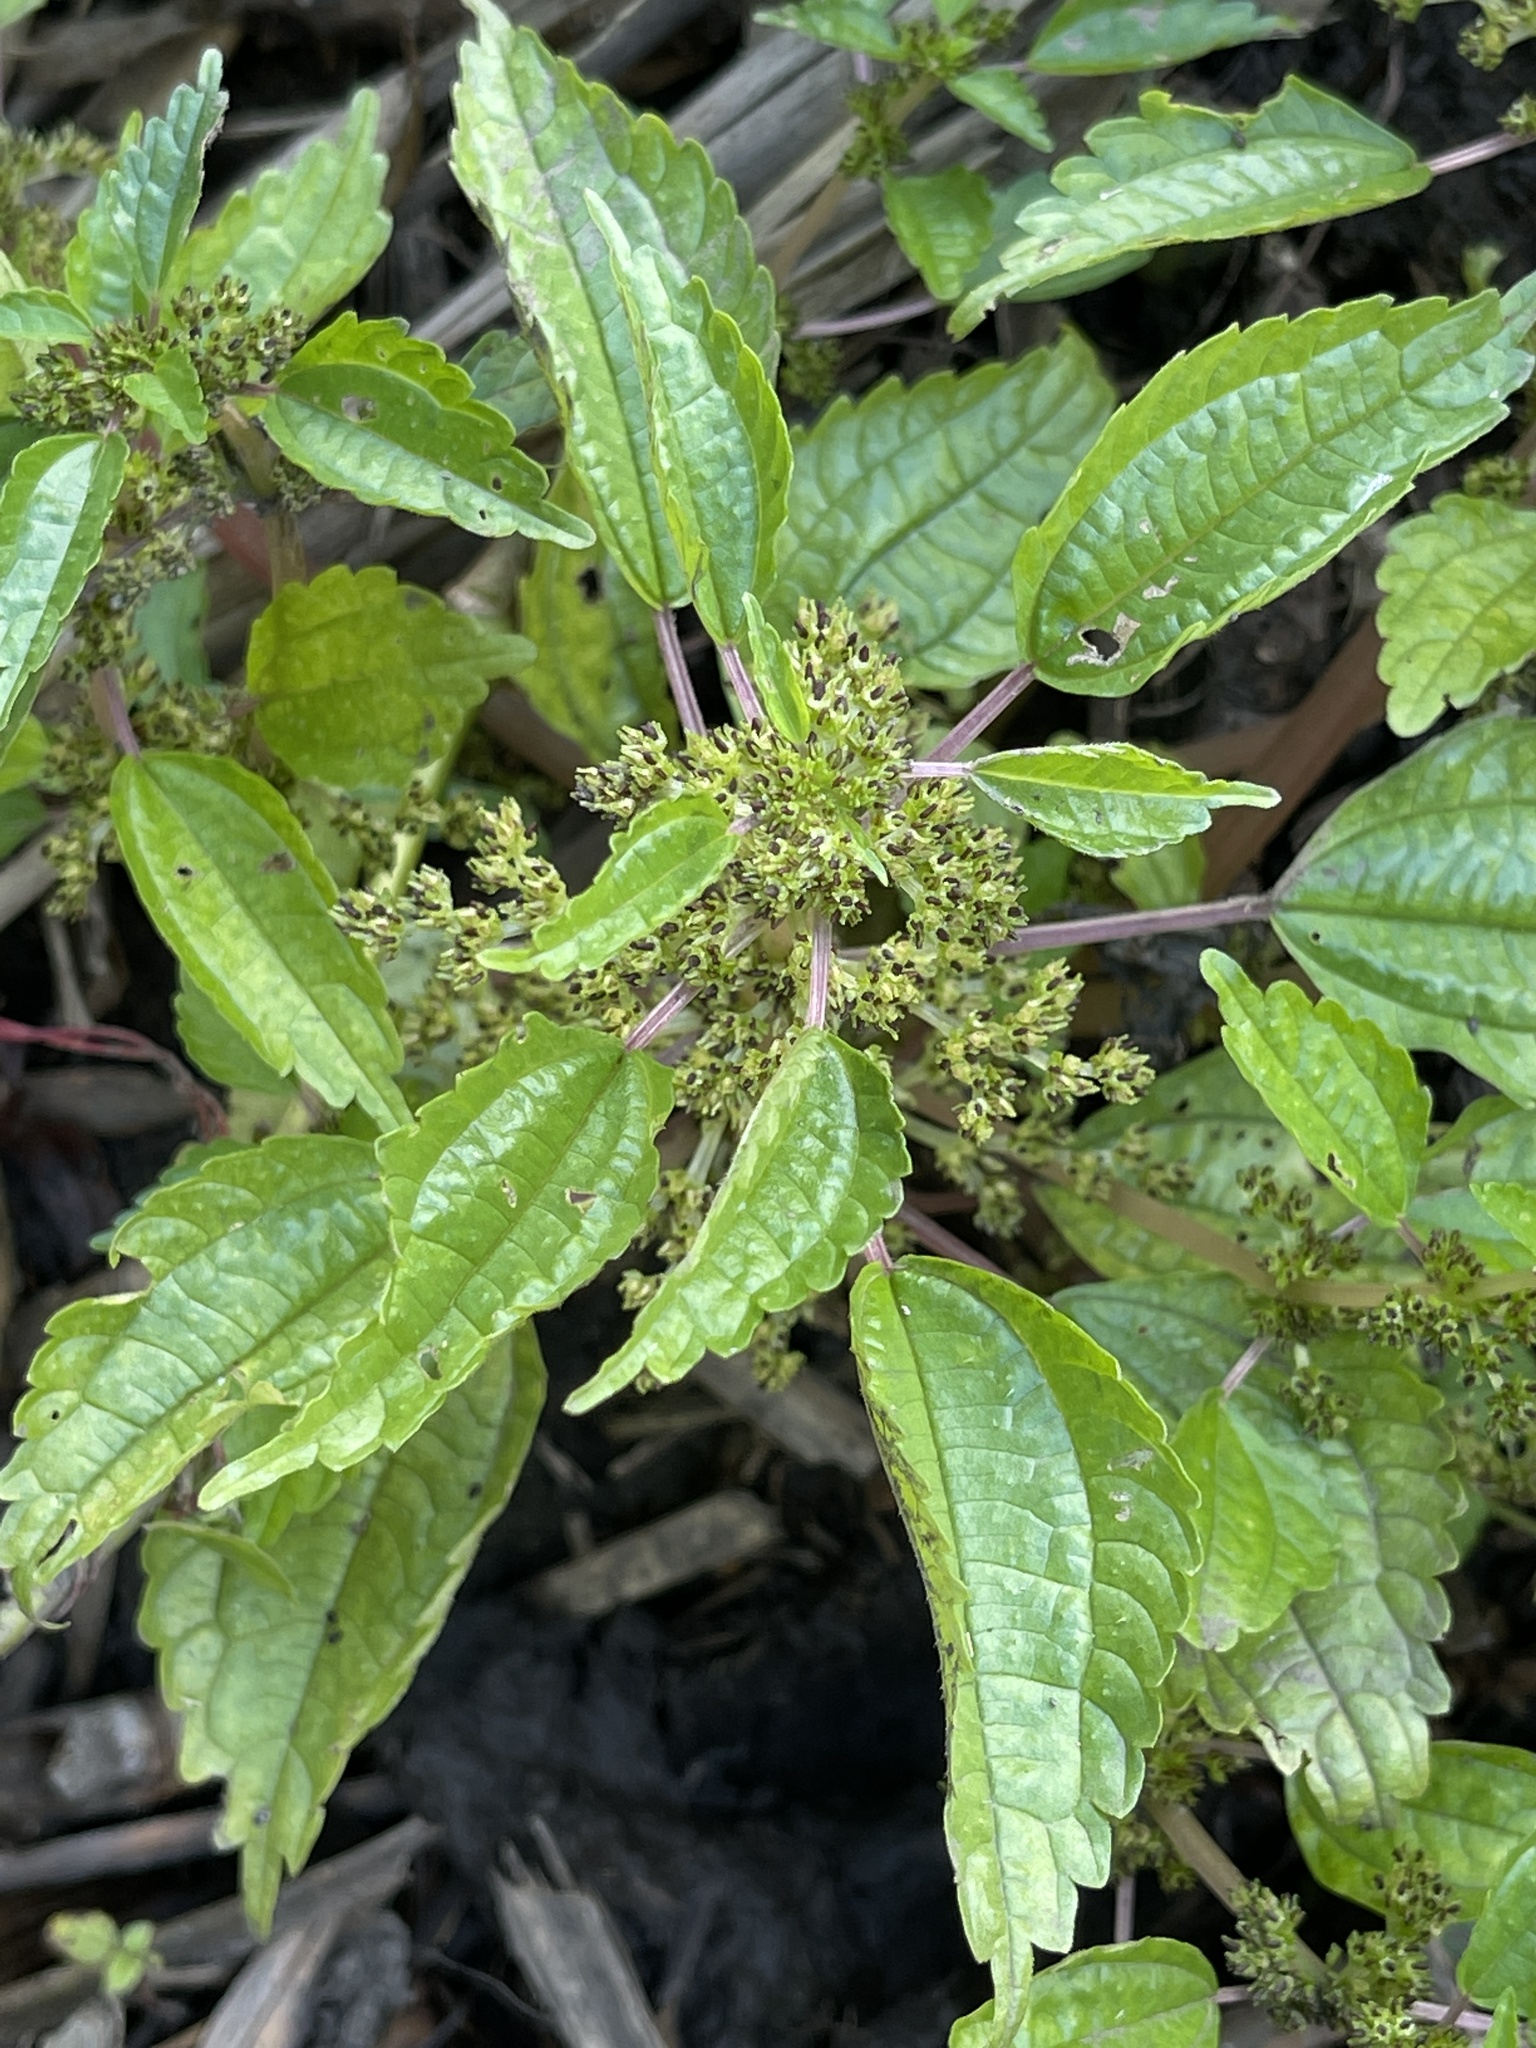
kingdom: Plantae
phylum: Tracheophyta
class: Magnoliopsida
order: Rosales
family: Urticaceae
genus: Pilea
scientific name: Pilea fontana
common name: Clearweed
